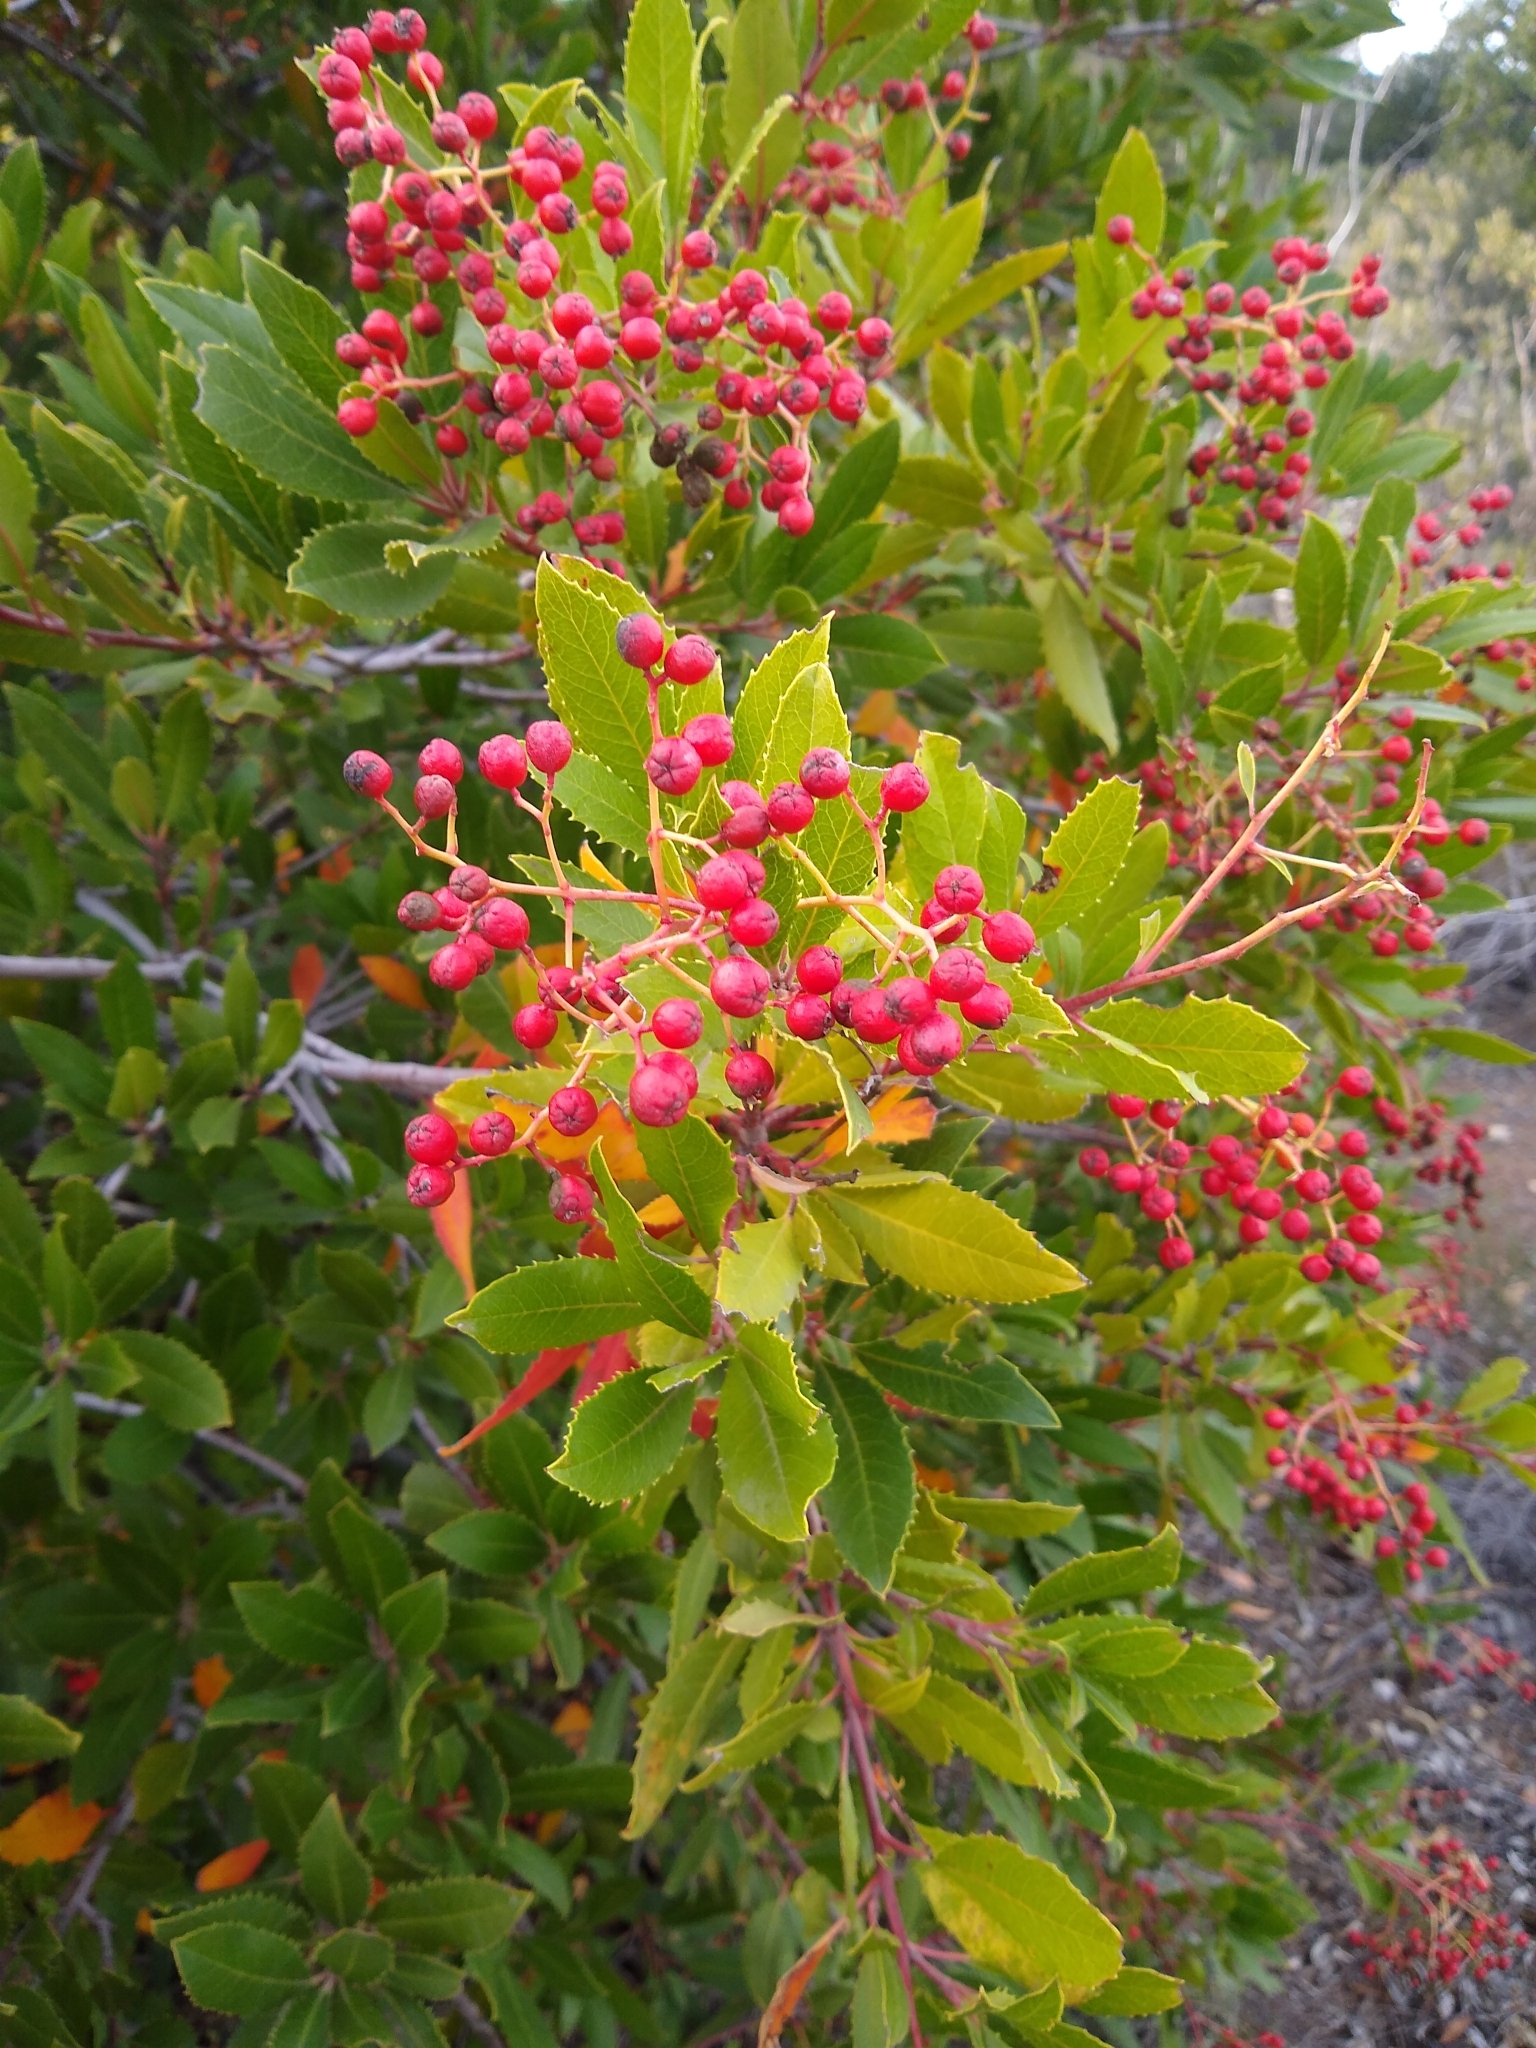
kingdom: Plantae
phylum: Tracheophyta
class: Magnoliopsida
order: Rosales
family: Rosaceae
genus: Heteromeles
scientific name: Heteromeles arbutifolia
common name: California-holly
